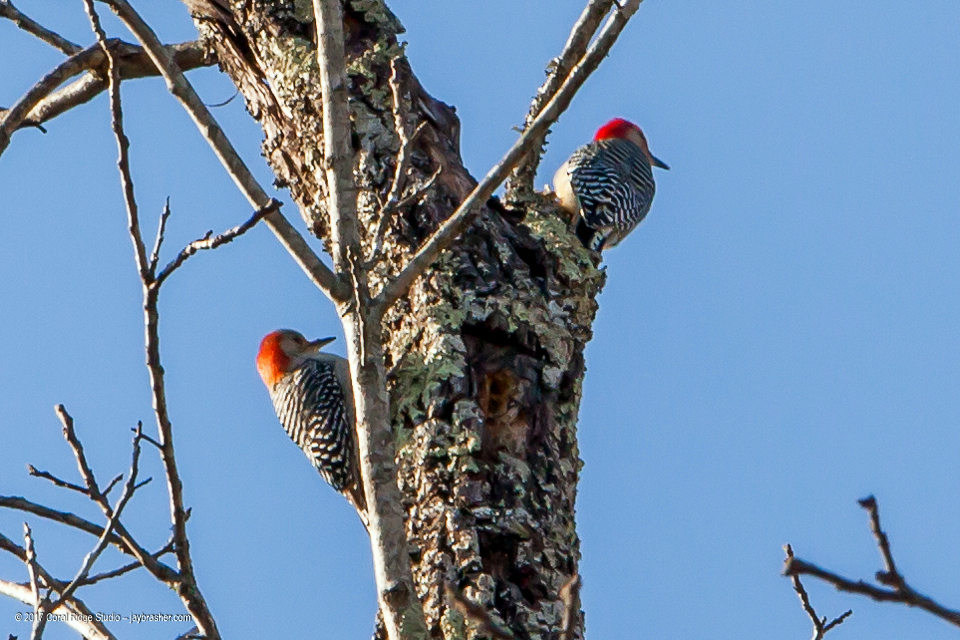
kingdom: Animalia
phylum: Chordata
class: Aves
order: Piciformes
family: Picidae
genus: Melanerpes
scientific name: Melanerpes carolinus
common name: Red-bellied woodpecker
